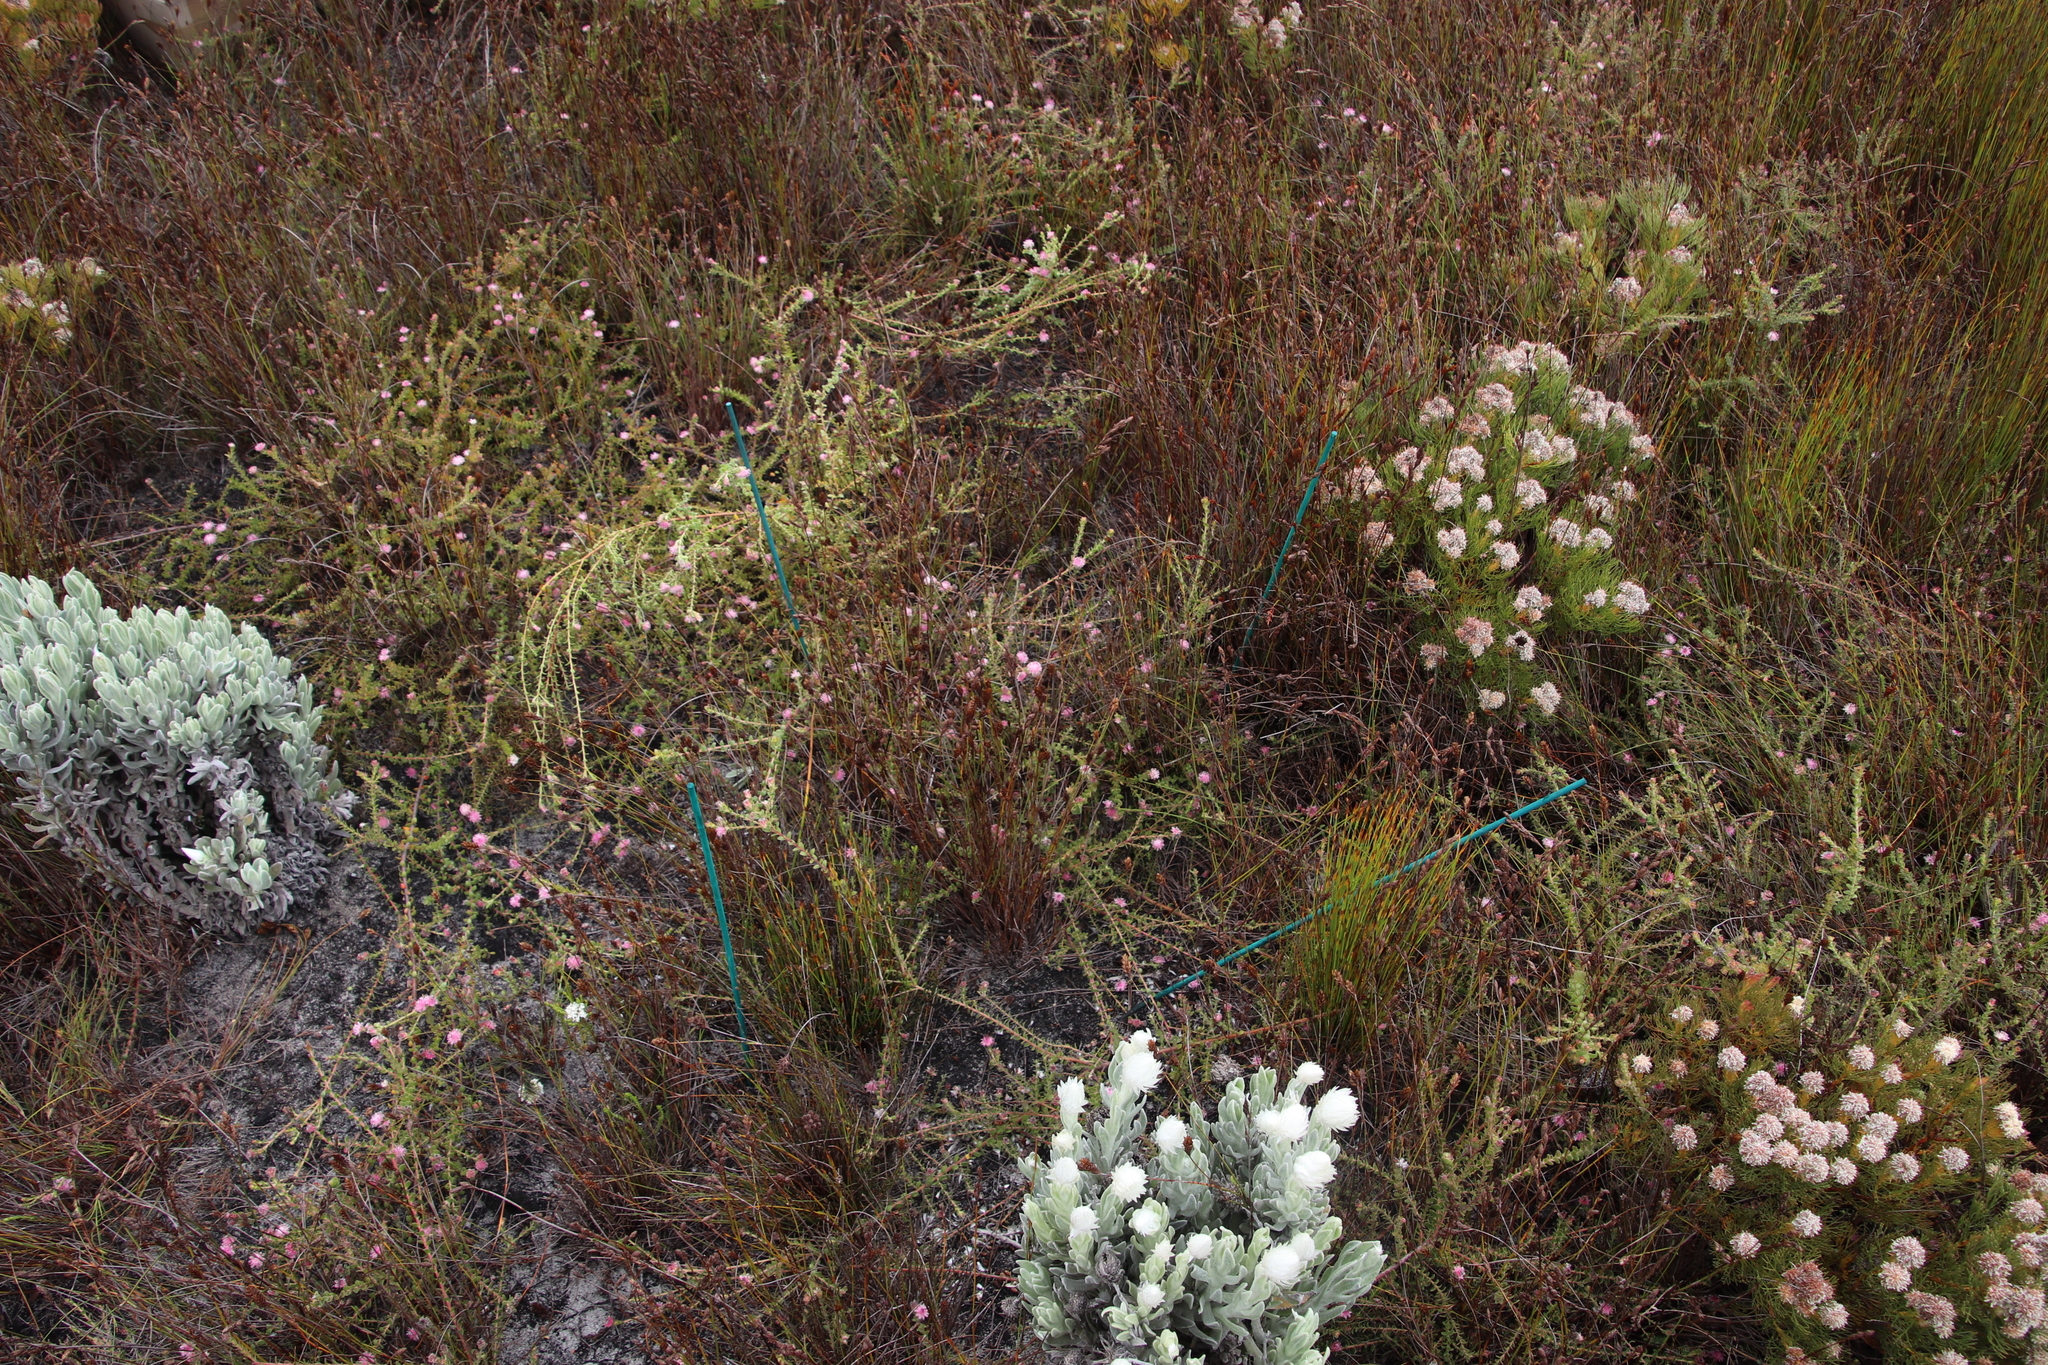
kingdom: Plantae
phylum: Tracheophyta
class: Magnoliopsida
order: Proteales
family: Proteaceae
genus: Diastella
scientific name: Diastella divaricata
